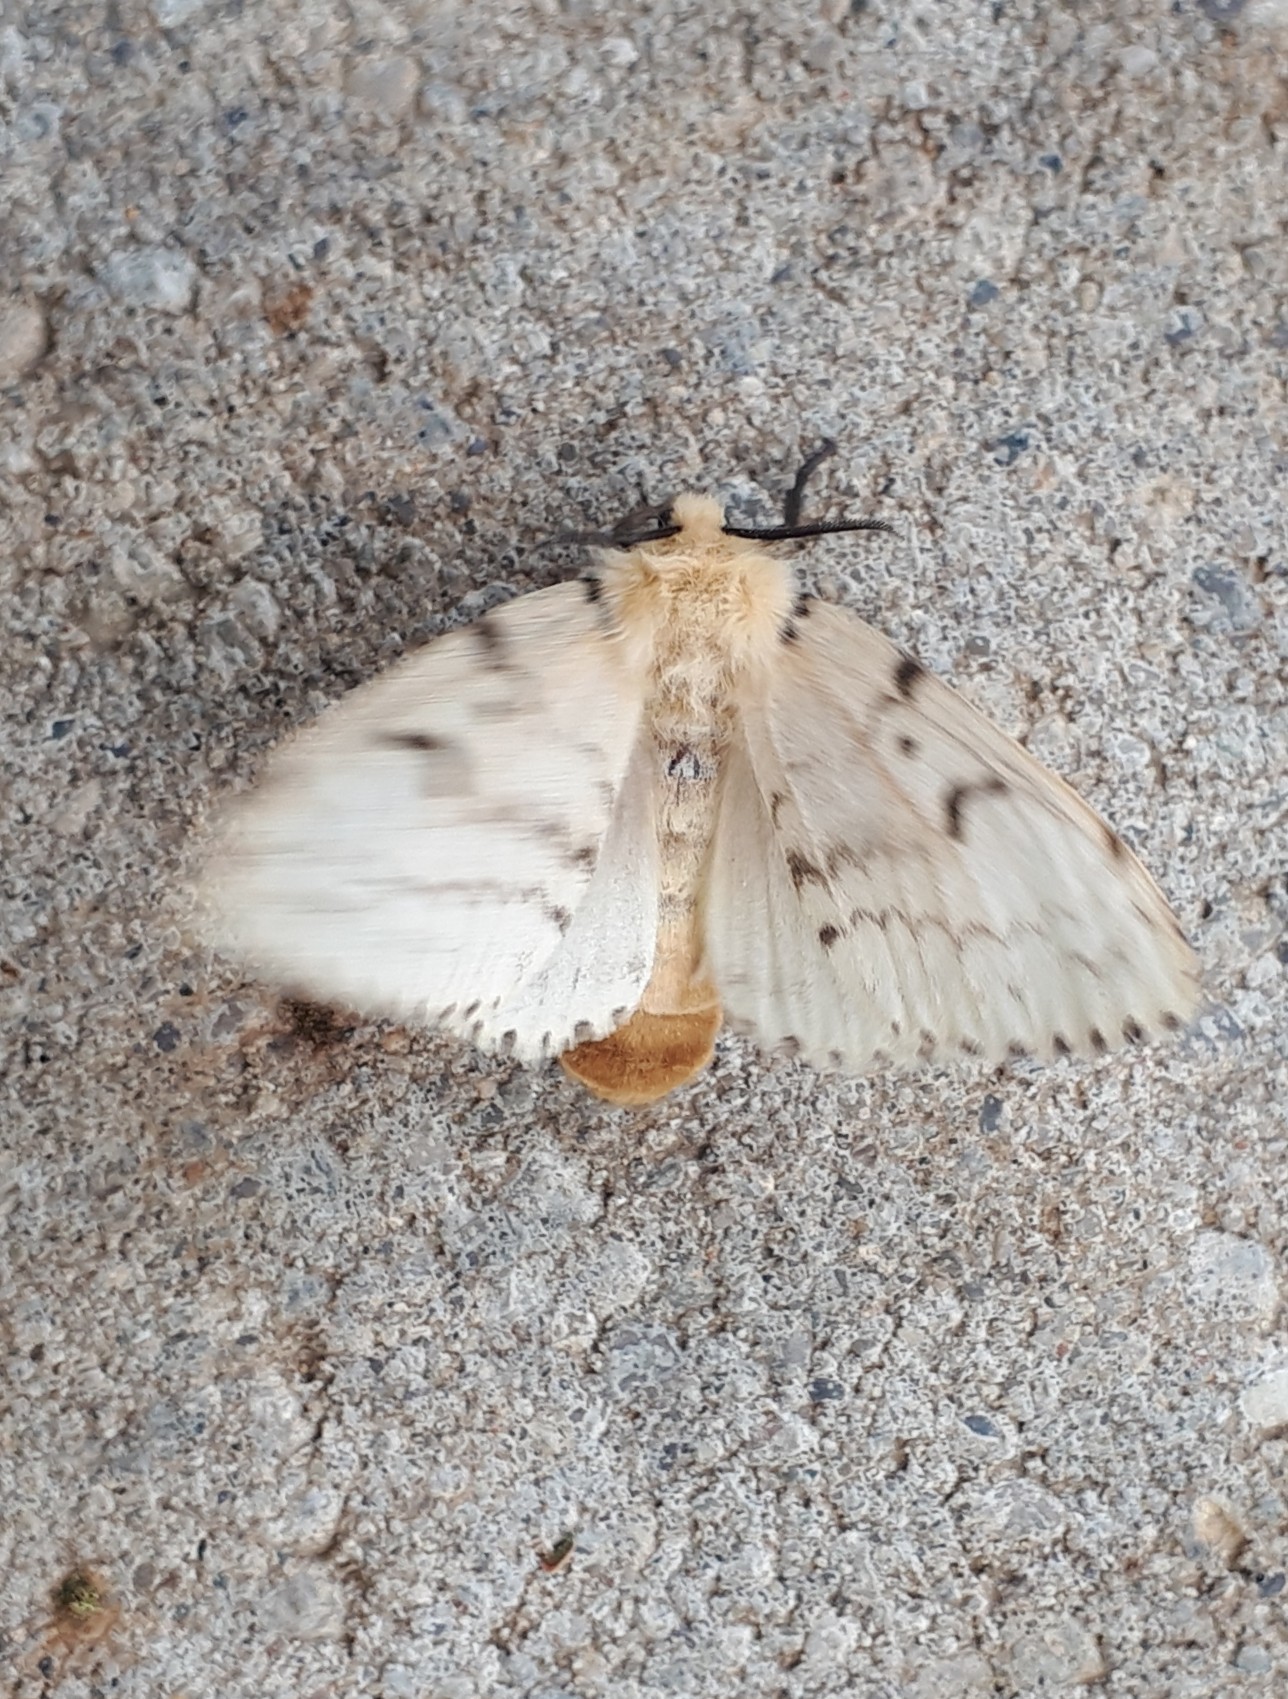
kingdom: Animalia
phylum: Arthropoda
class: Insecta
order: Lepidoptera
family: Erebidae
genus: Lymantria
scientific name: Lymantria dispar
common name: Gypsy moth
